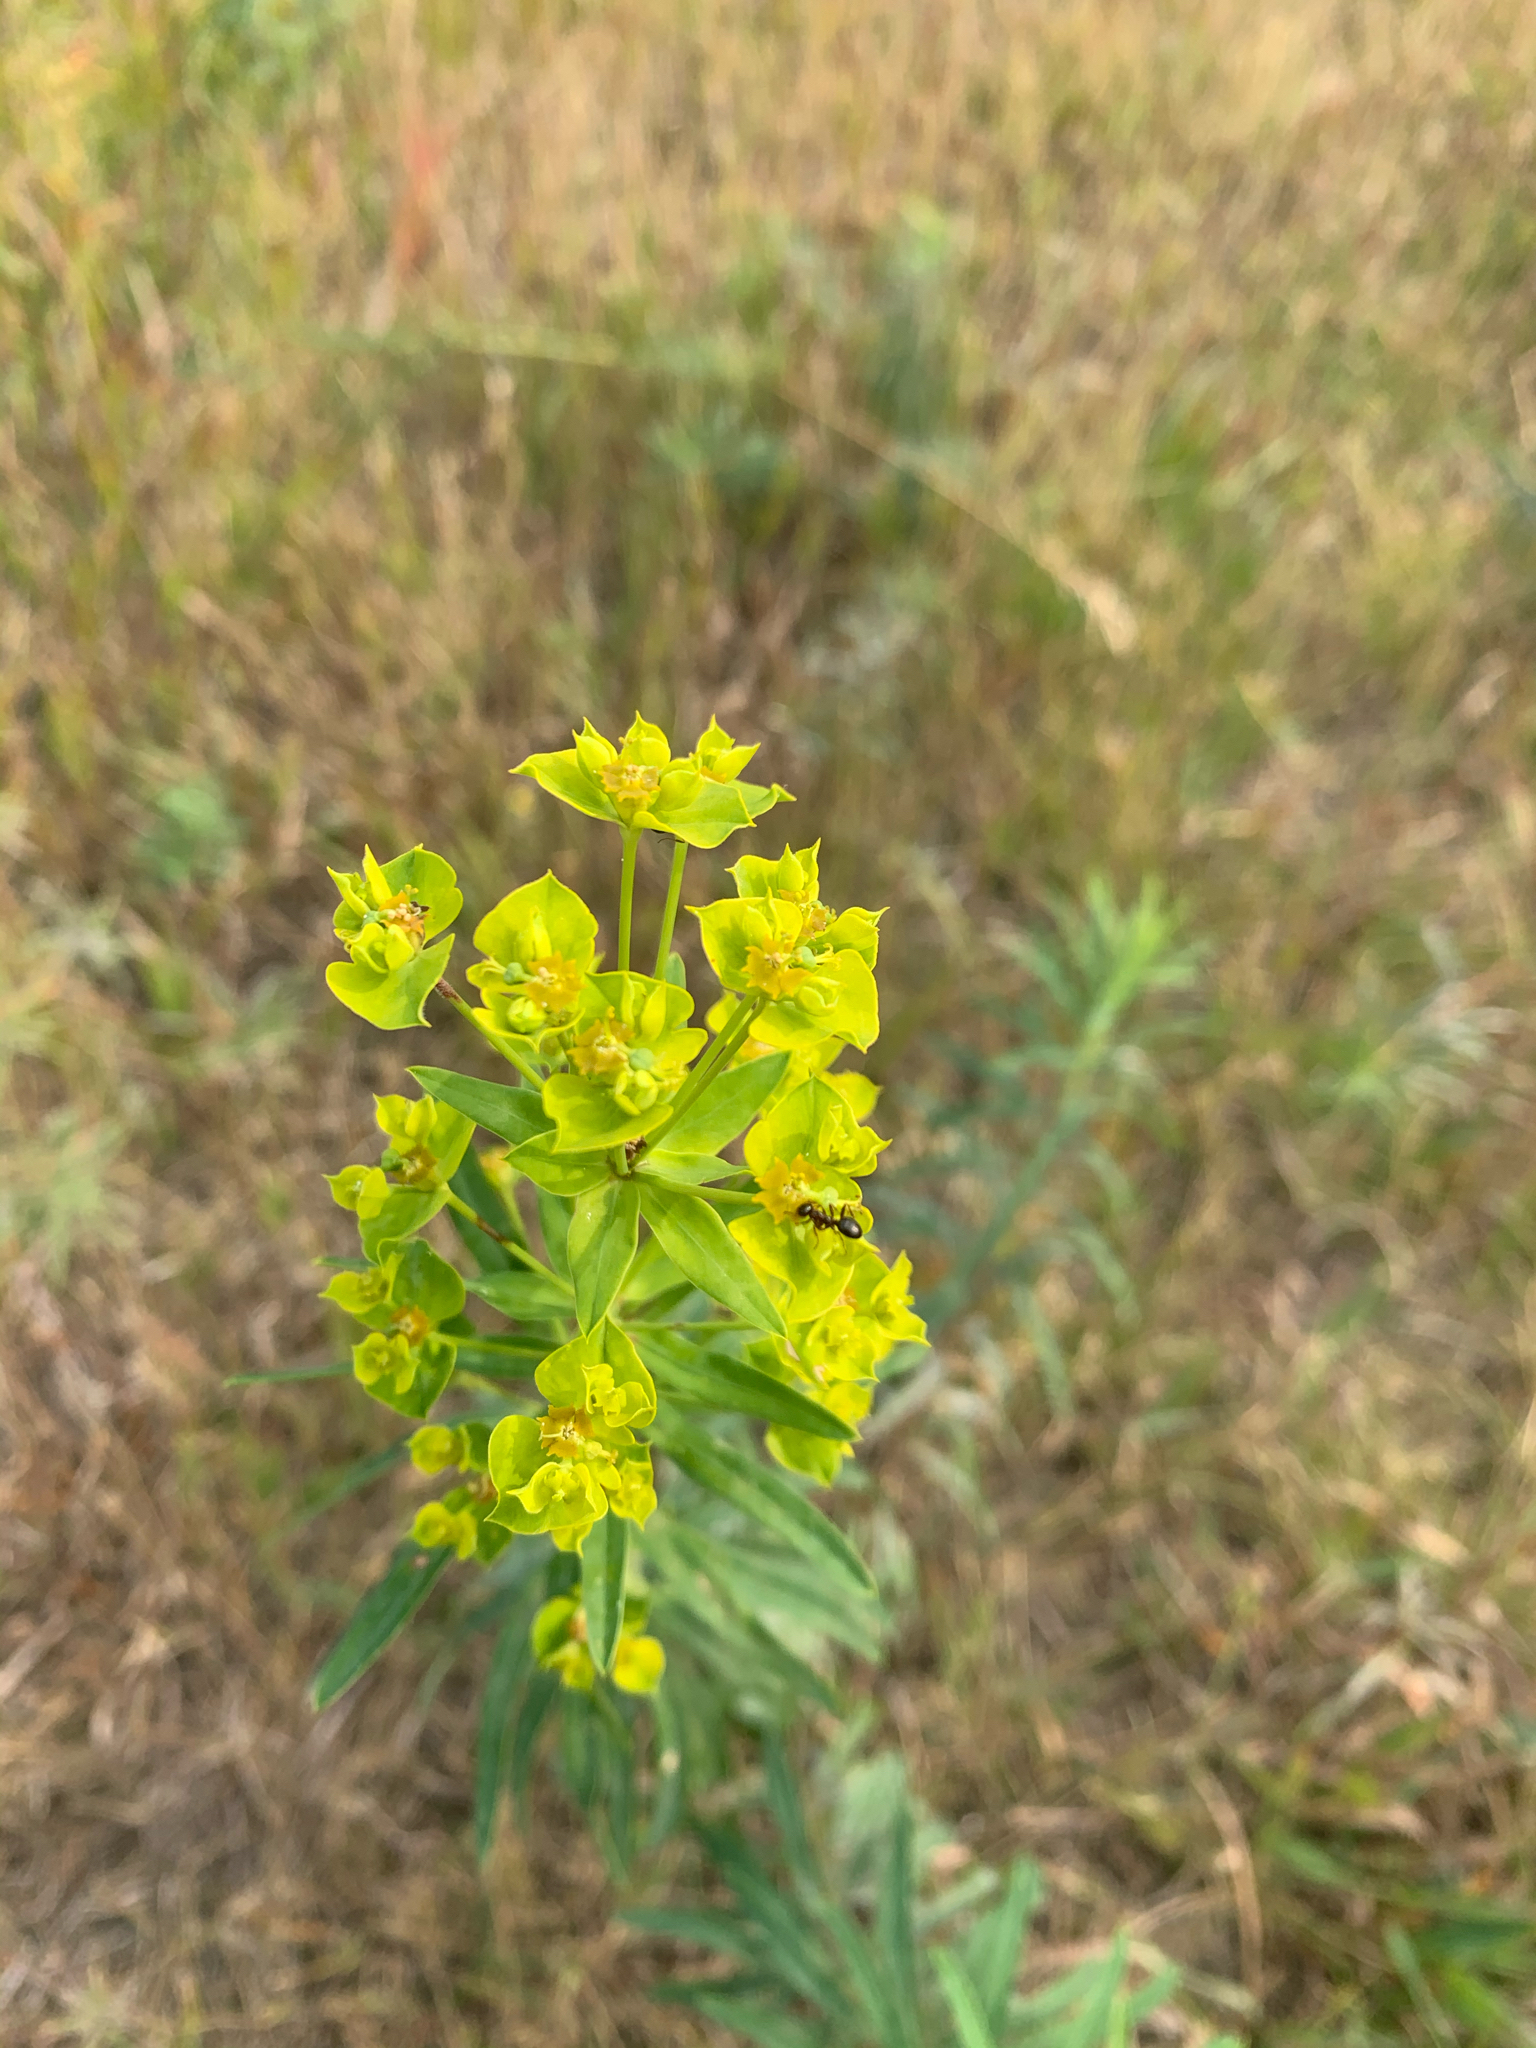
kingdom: Plantae
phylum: Tracheophyta
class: Magnoliopsida
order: Malpighiales
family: Euphorbiaceae
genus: Euphorbia
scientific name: Euphorbia virgata
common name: Leafy spurge
